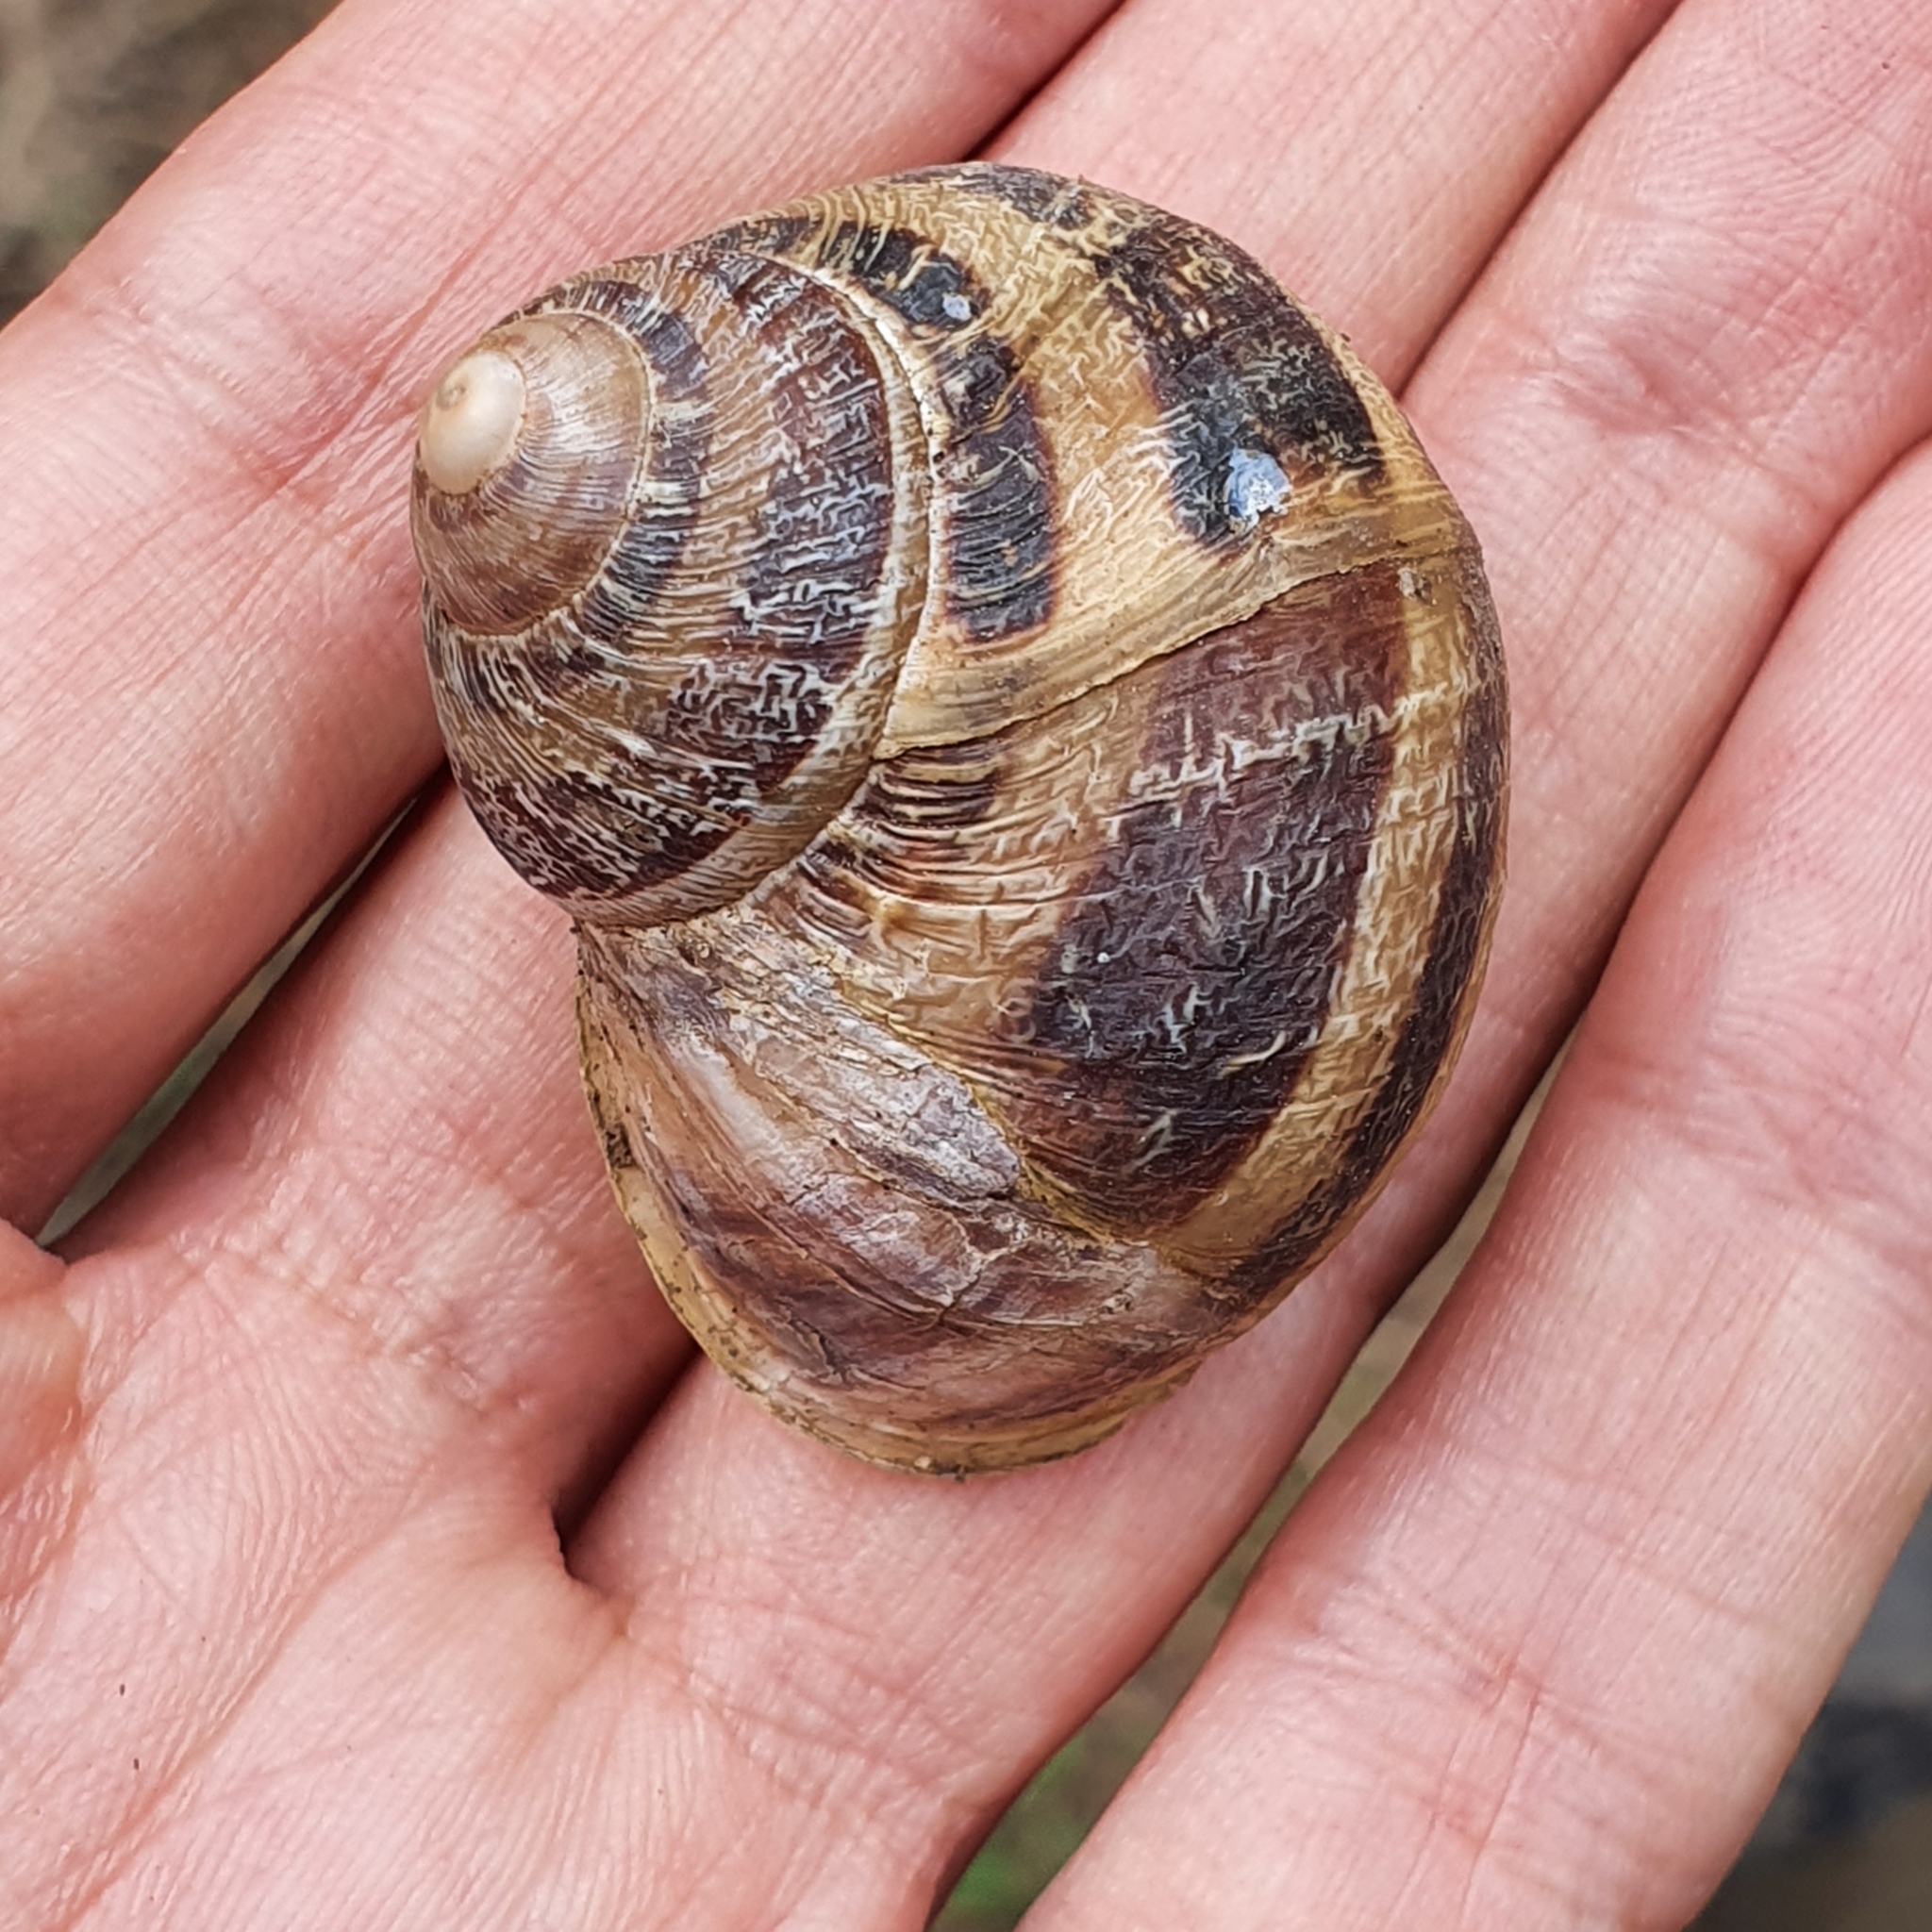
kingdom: Animalia
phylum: Mollusca
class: Gastropoda
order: Stylommatophora
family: Helicidae
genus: Cornu
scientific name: Cornu aspersum
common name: Brown garden snail
